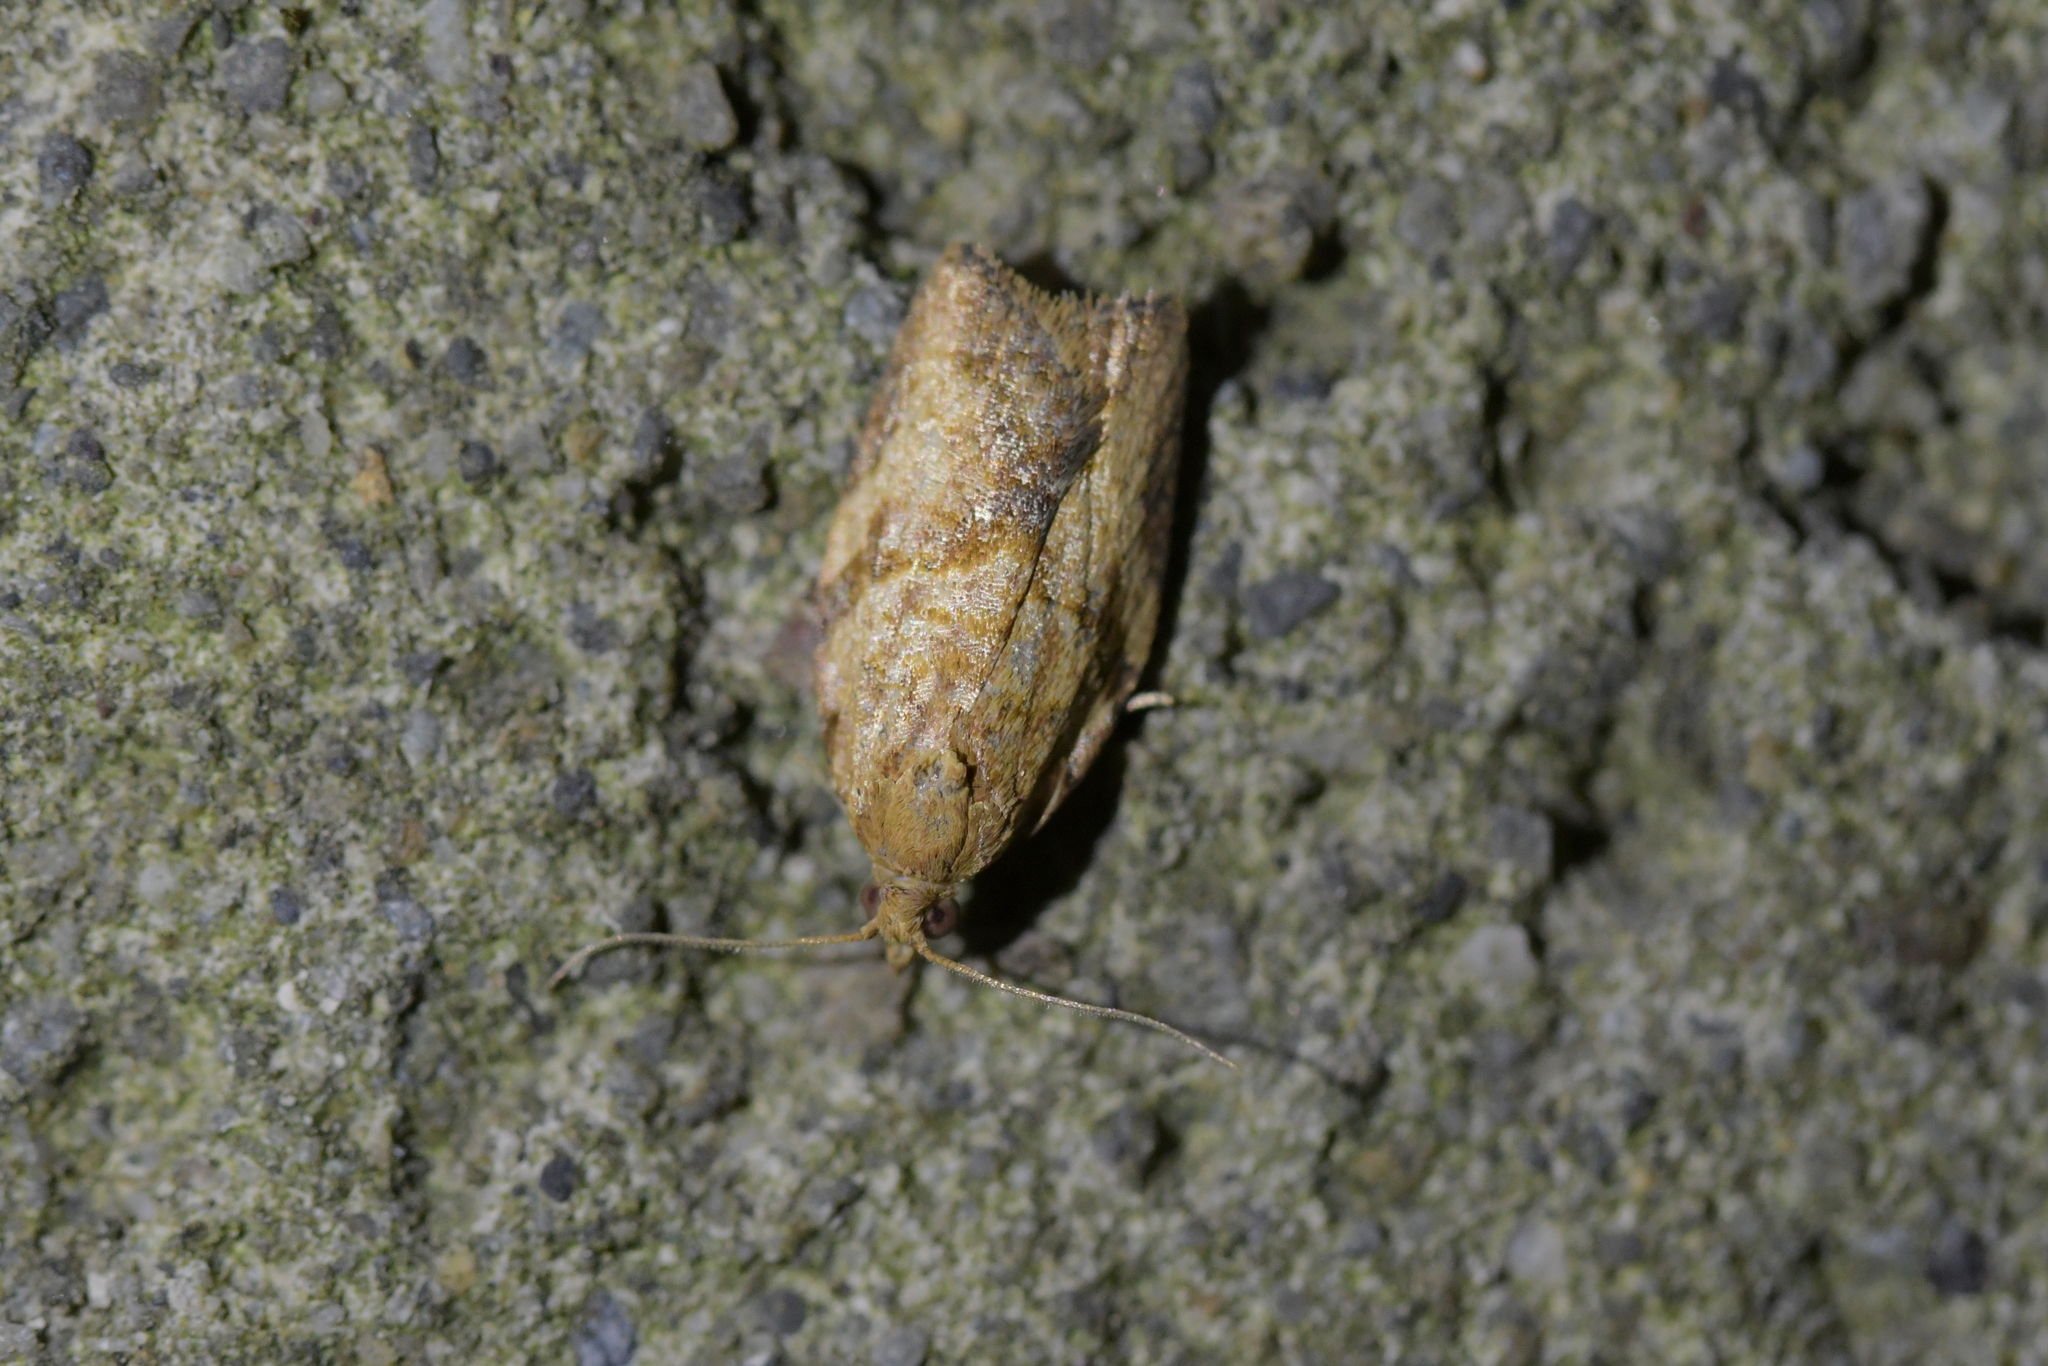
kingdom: Animalia
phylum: Arthropoda
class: Insecta
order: Lepidoptera
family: Tortricidae
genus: Epiphyas
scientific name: Epiphyas postvittana
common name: Light brown apple moth
